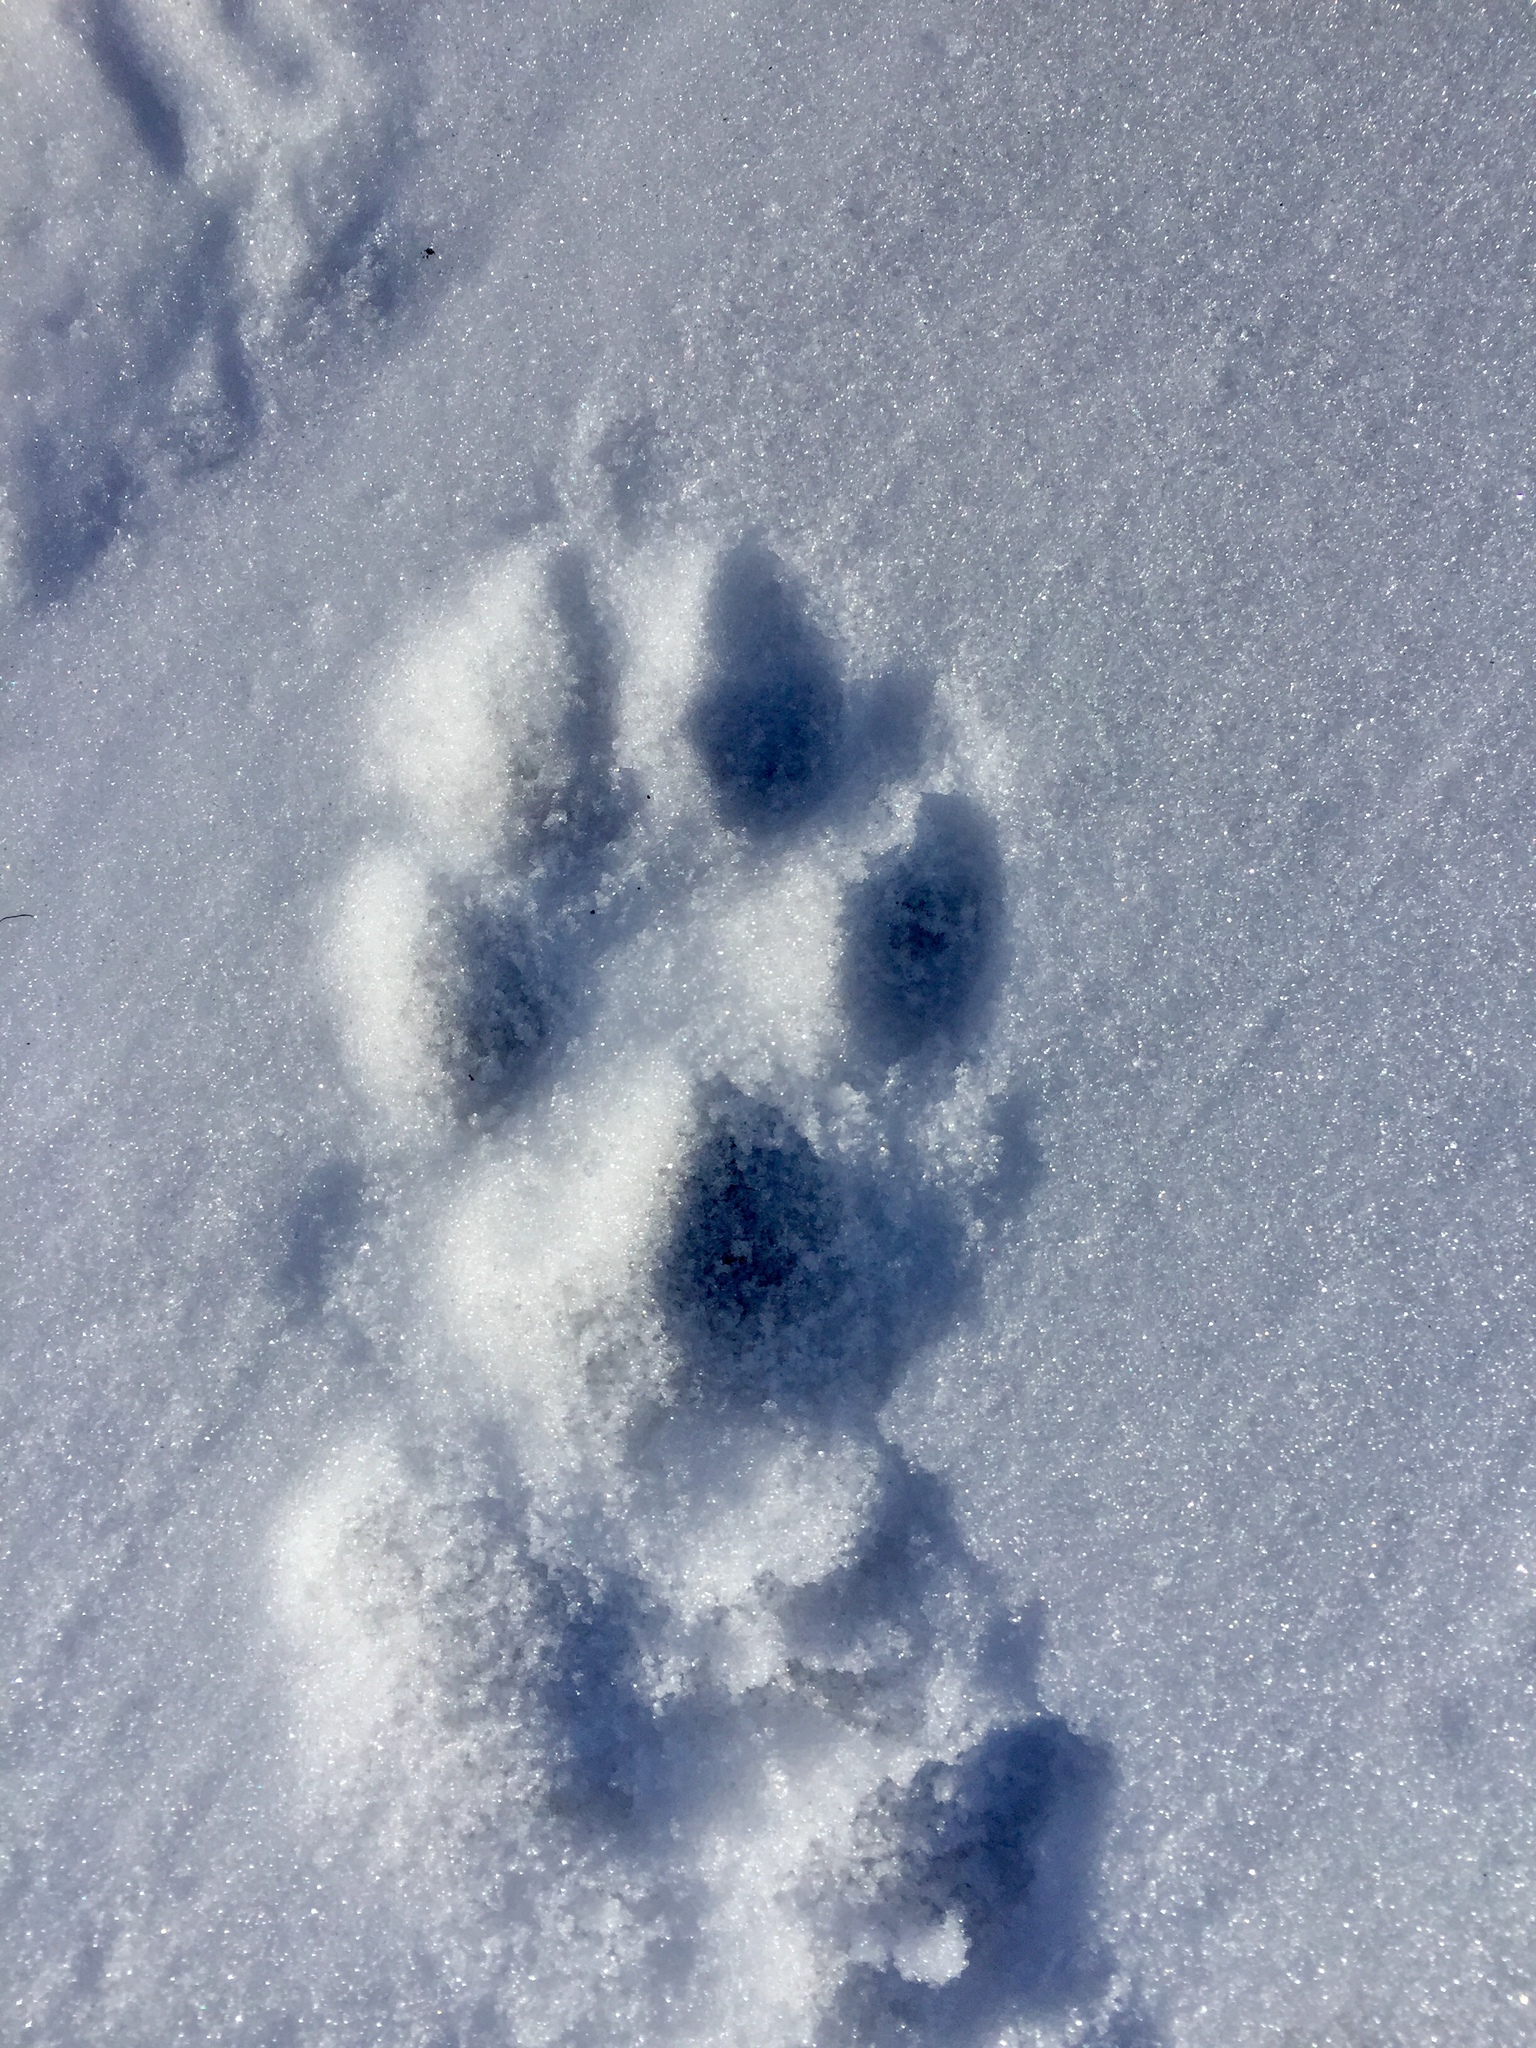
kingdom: Animalia
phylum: Chordata
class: Mammalia
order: Carnivora
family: Canidae
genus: Canis
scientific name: Canis latrans
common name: Coyote
